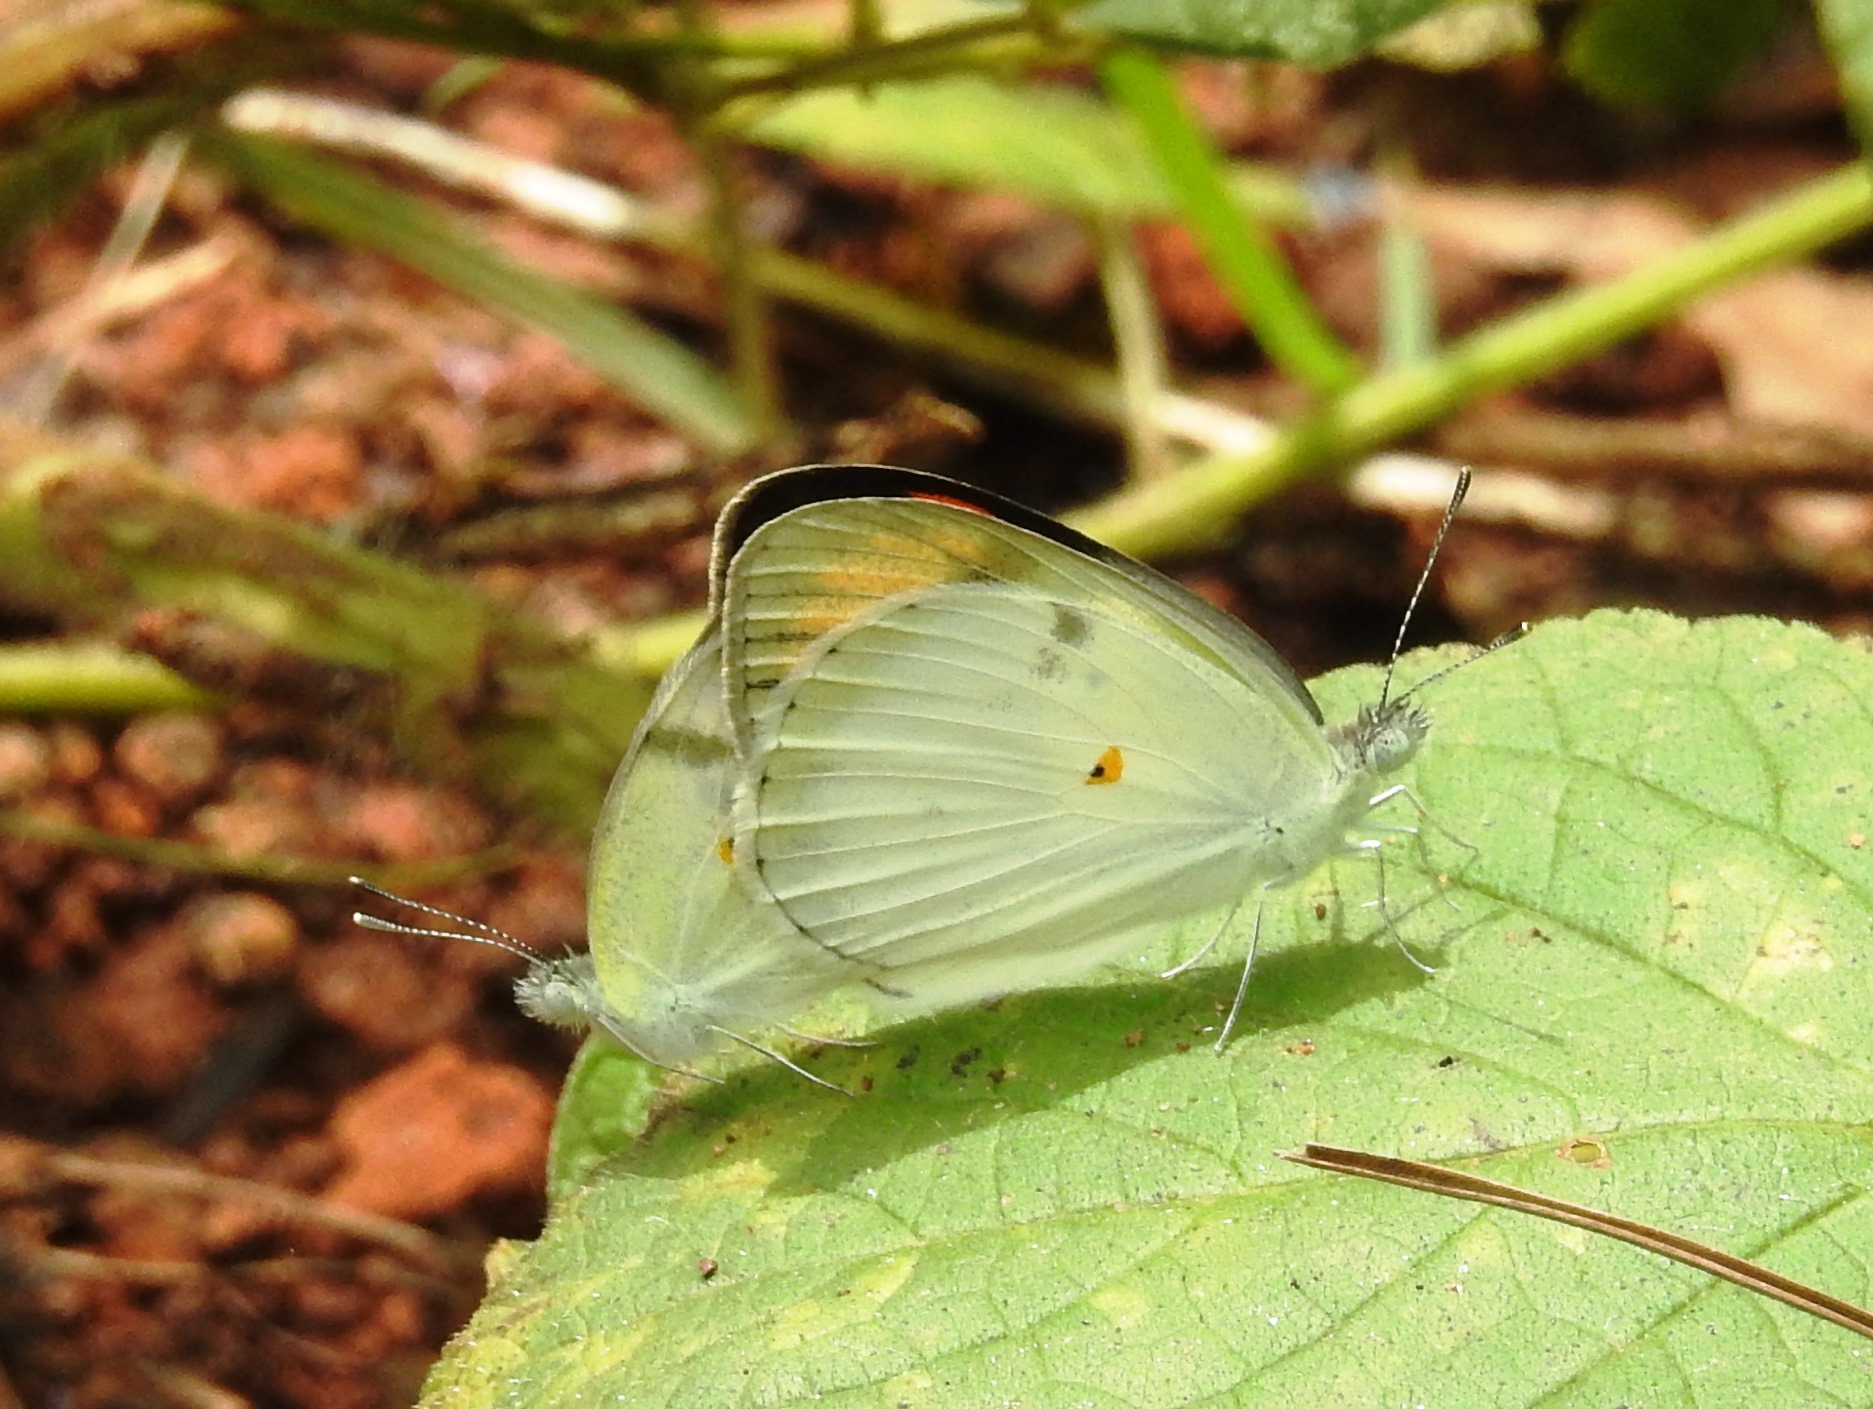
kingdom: Animalia
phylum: Arthropoda
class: Insecta
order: Lepidoptera
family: Pieridae
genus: Colotis
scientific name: Colotis etrida
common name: Little orange tip
